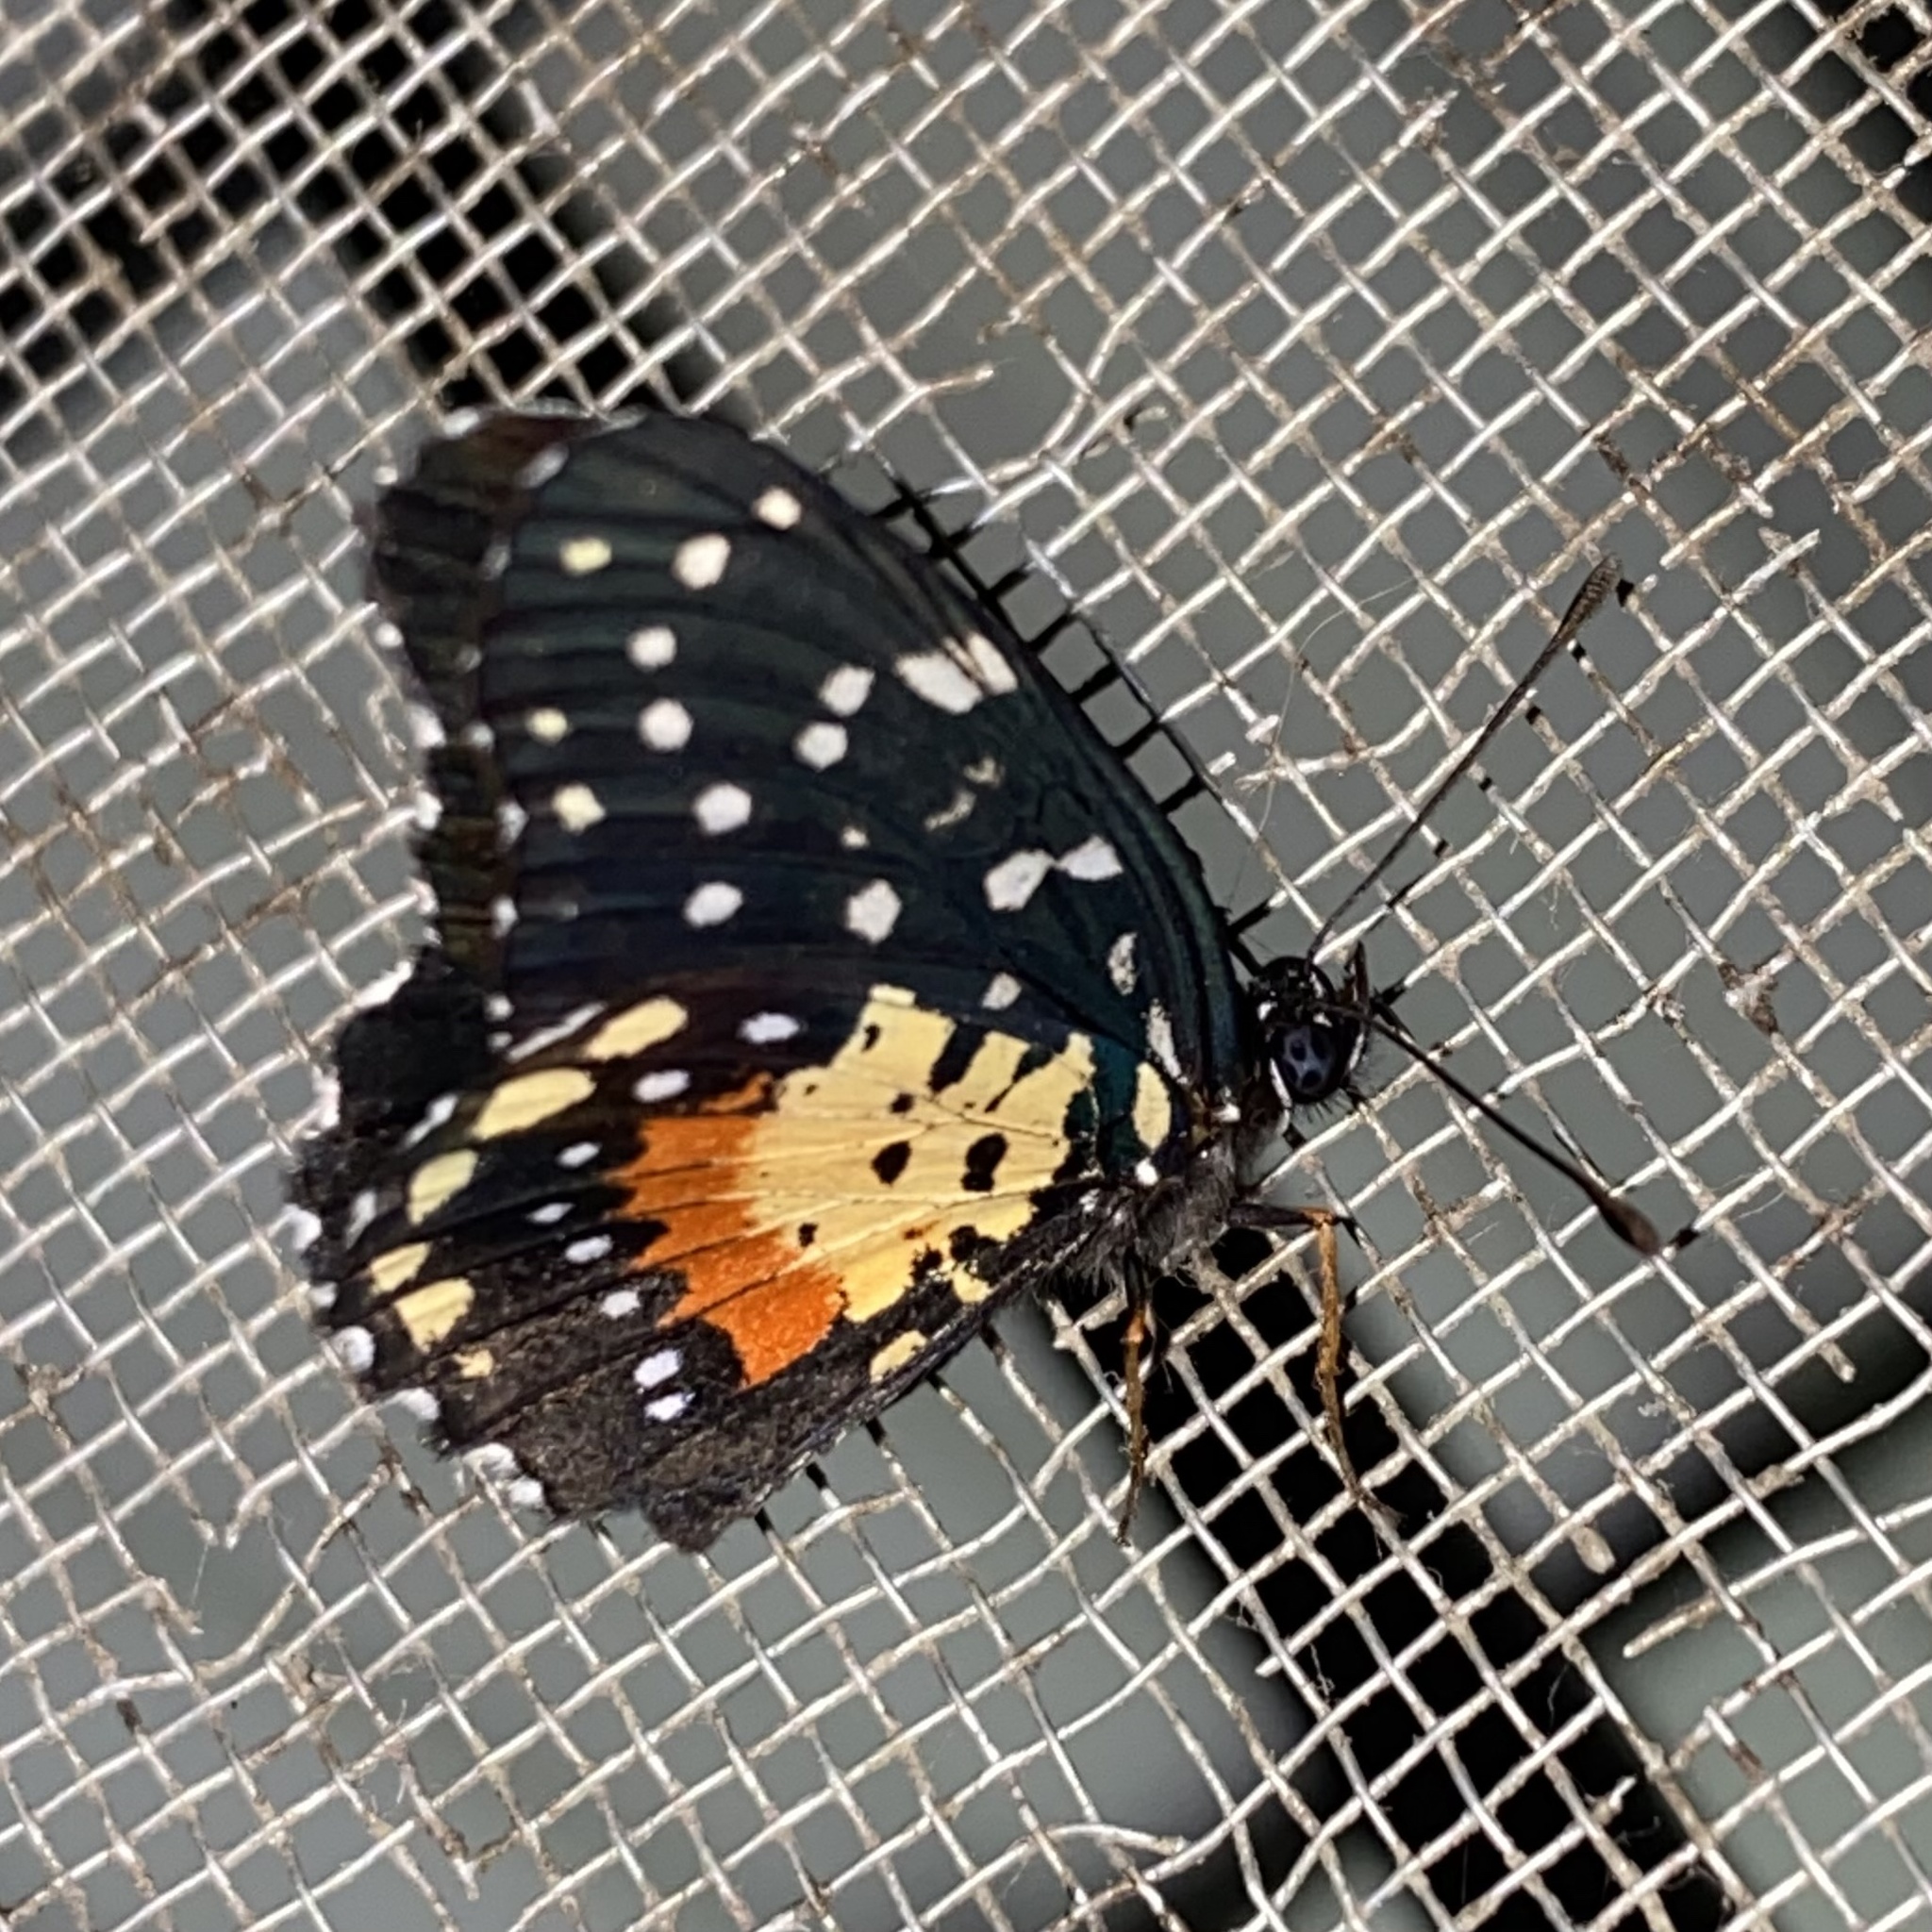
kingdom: Animalia
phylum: Arthropoda
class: Insecta
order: Lepidoptera
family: Nymphalidae
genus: Chlosyne
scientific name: Chlosyne janais
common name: Crimson patch
